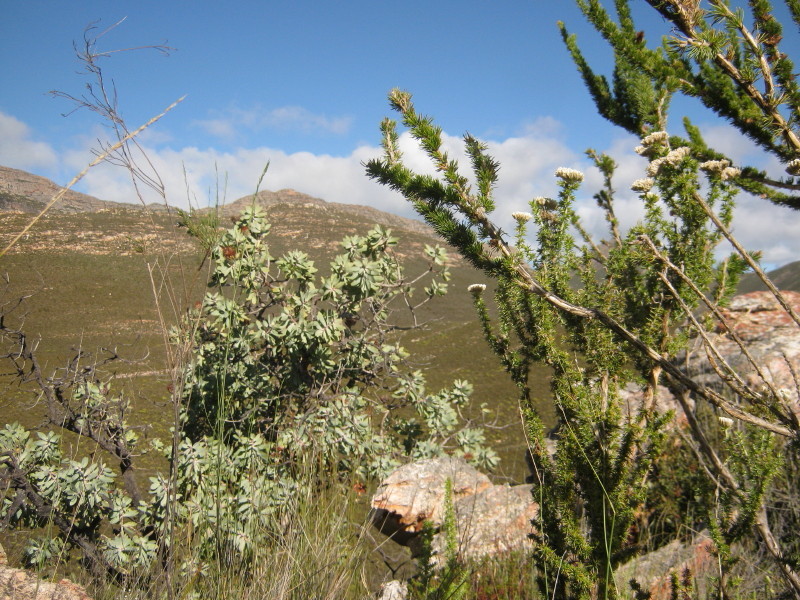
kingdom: Plantae
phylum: Tracheophyta
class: Magnoliopsida
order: Asterales
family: Asteraceae
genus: Metalasia
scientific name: Metalasia acuta
